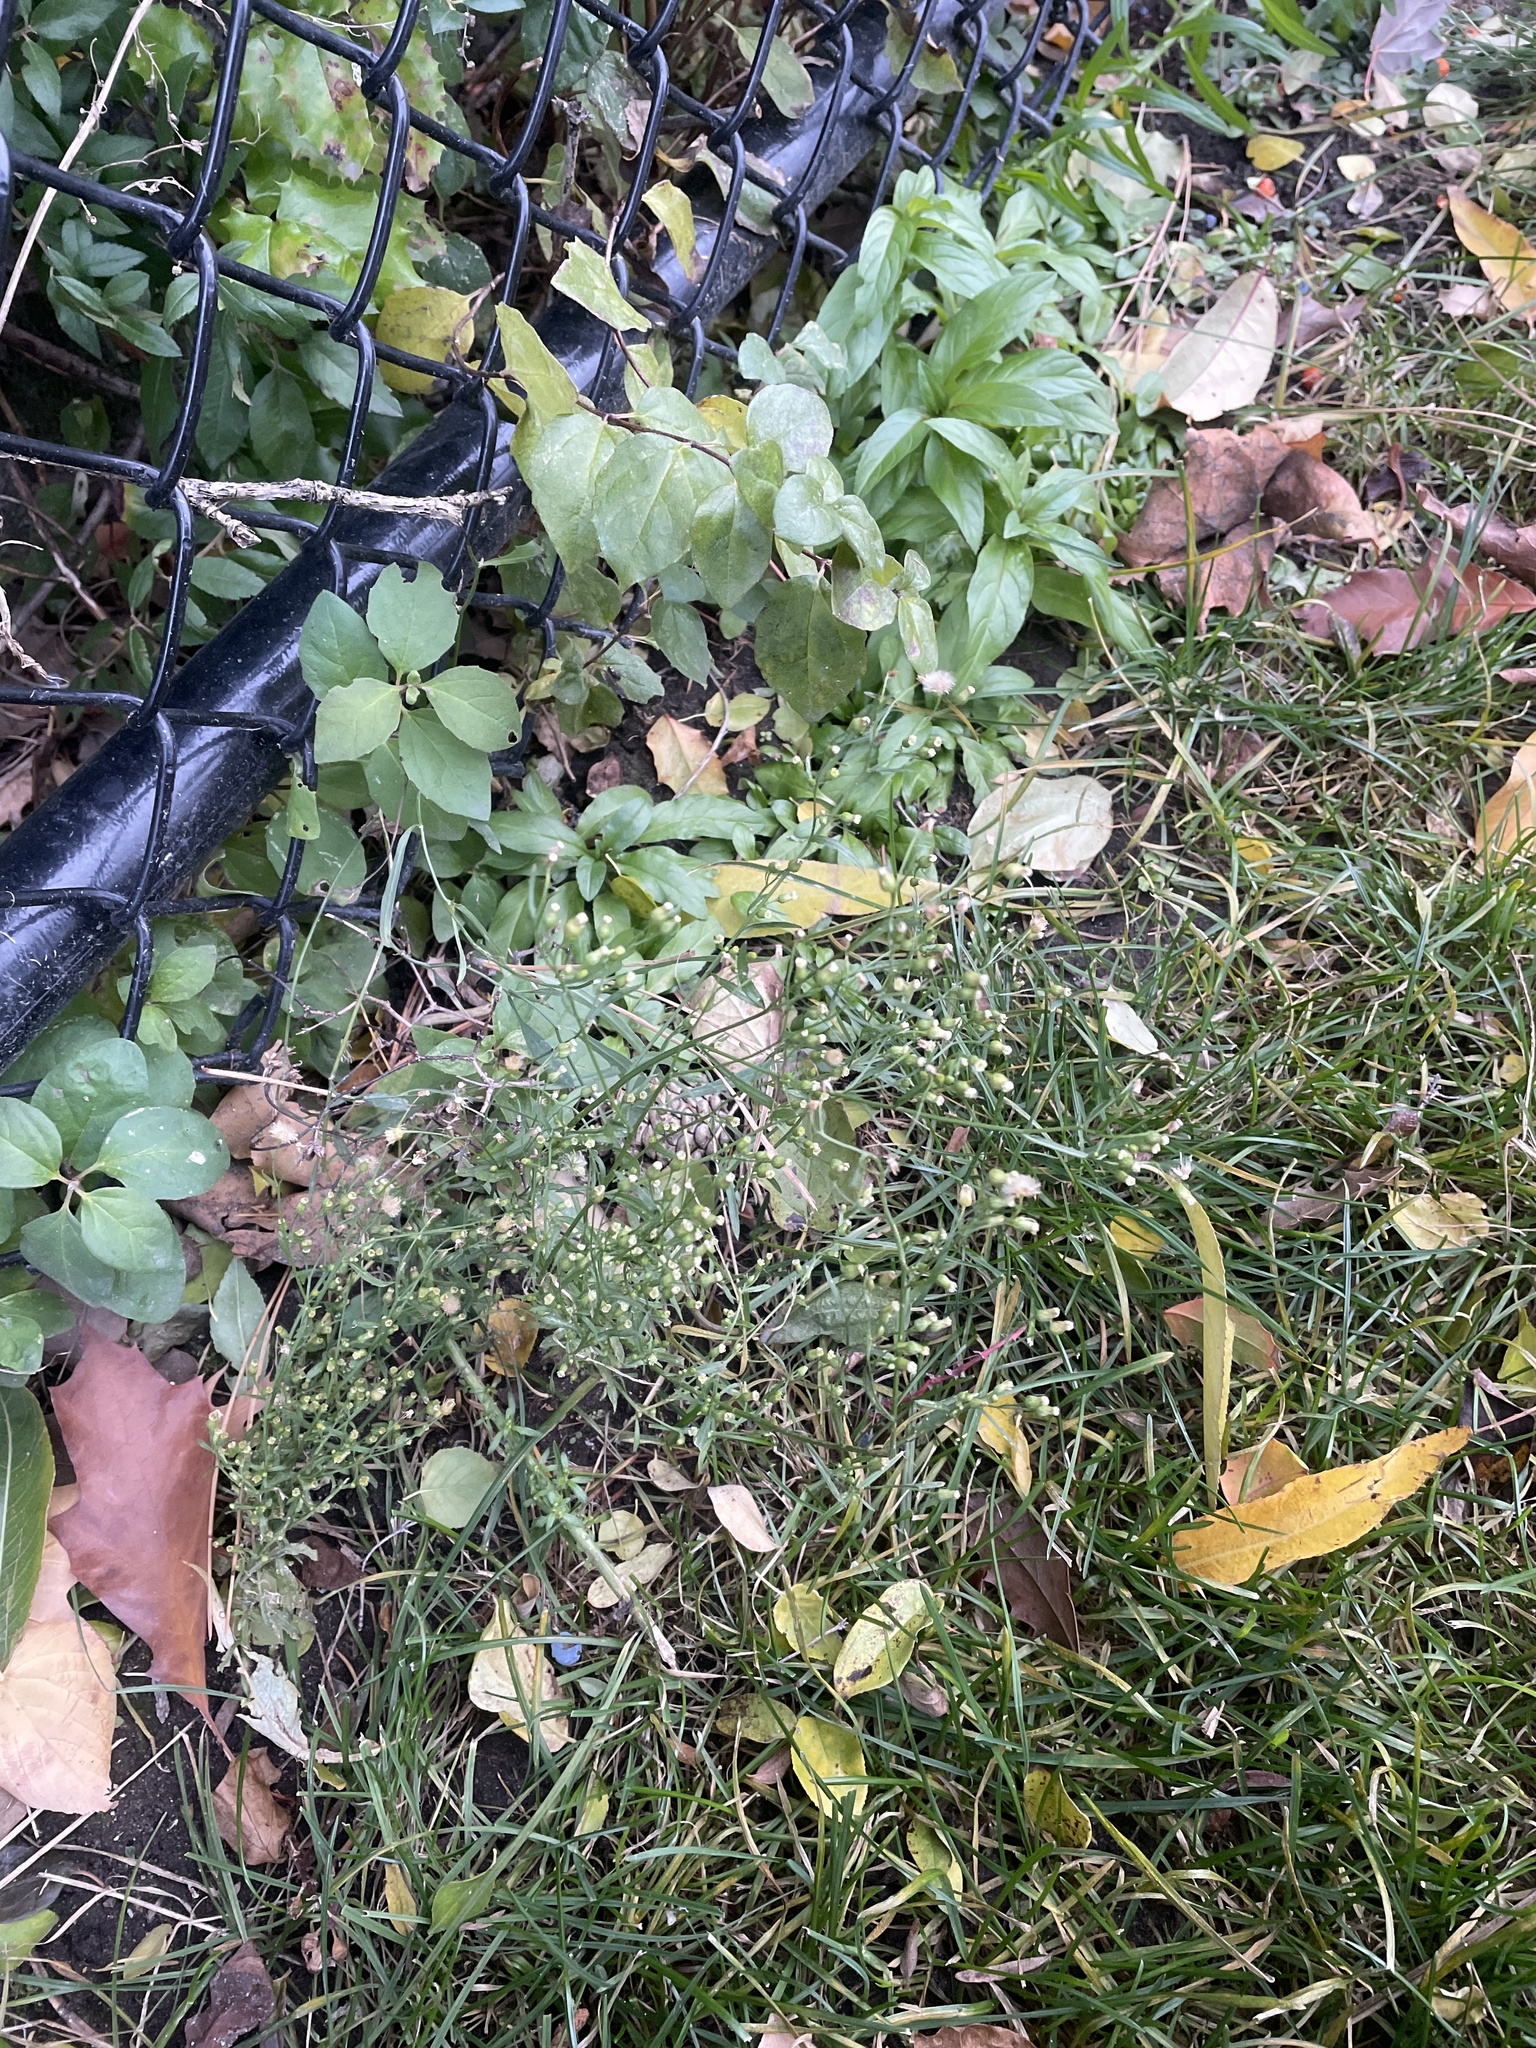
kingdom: Plantae
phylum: Tracheophyta
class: Magnoliopsida
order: Asterales
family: Asteraceae
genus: Erigeron
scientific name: Erigeron canadensis
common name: Canadian fleabane
